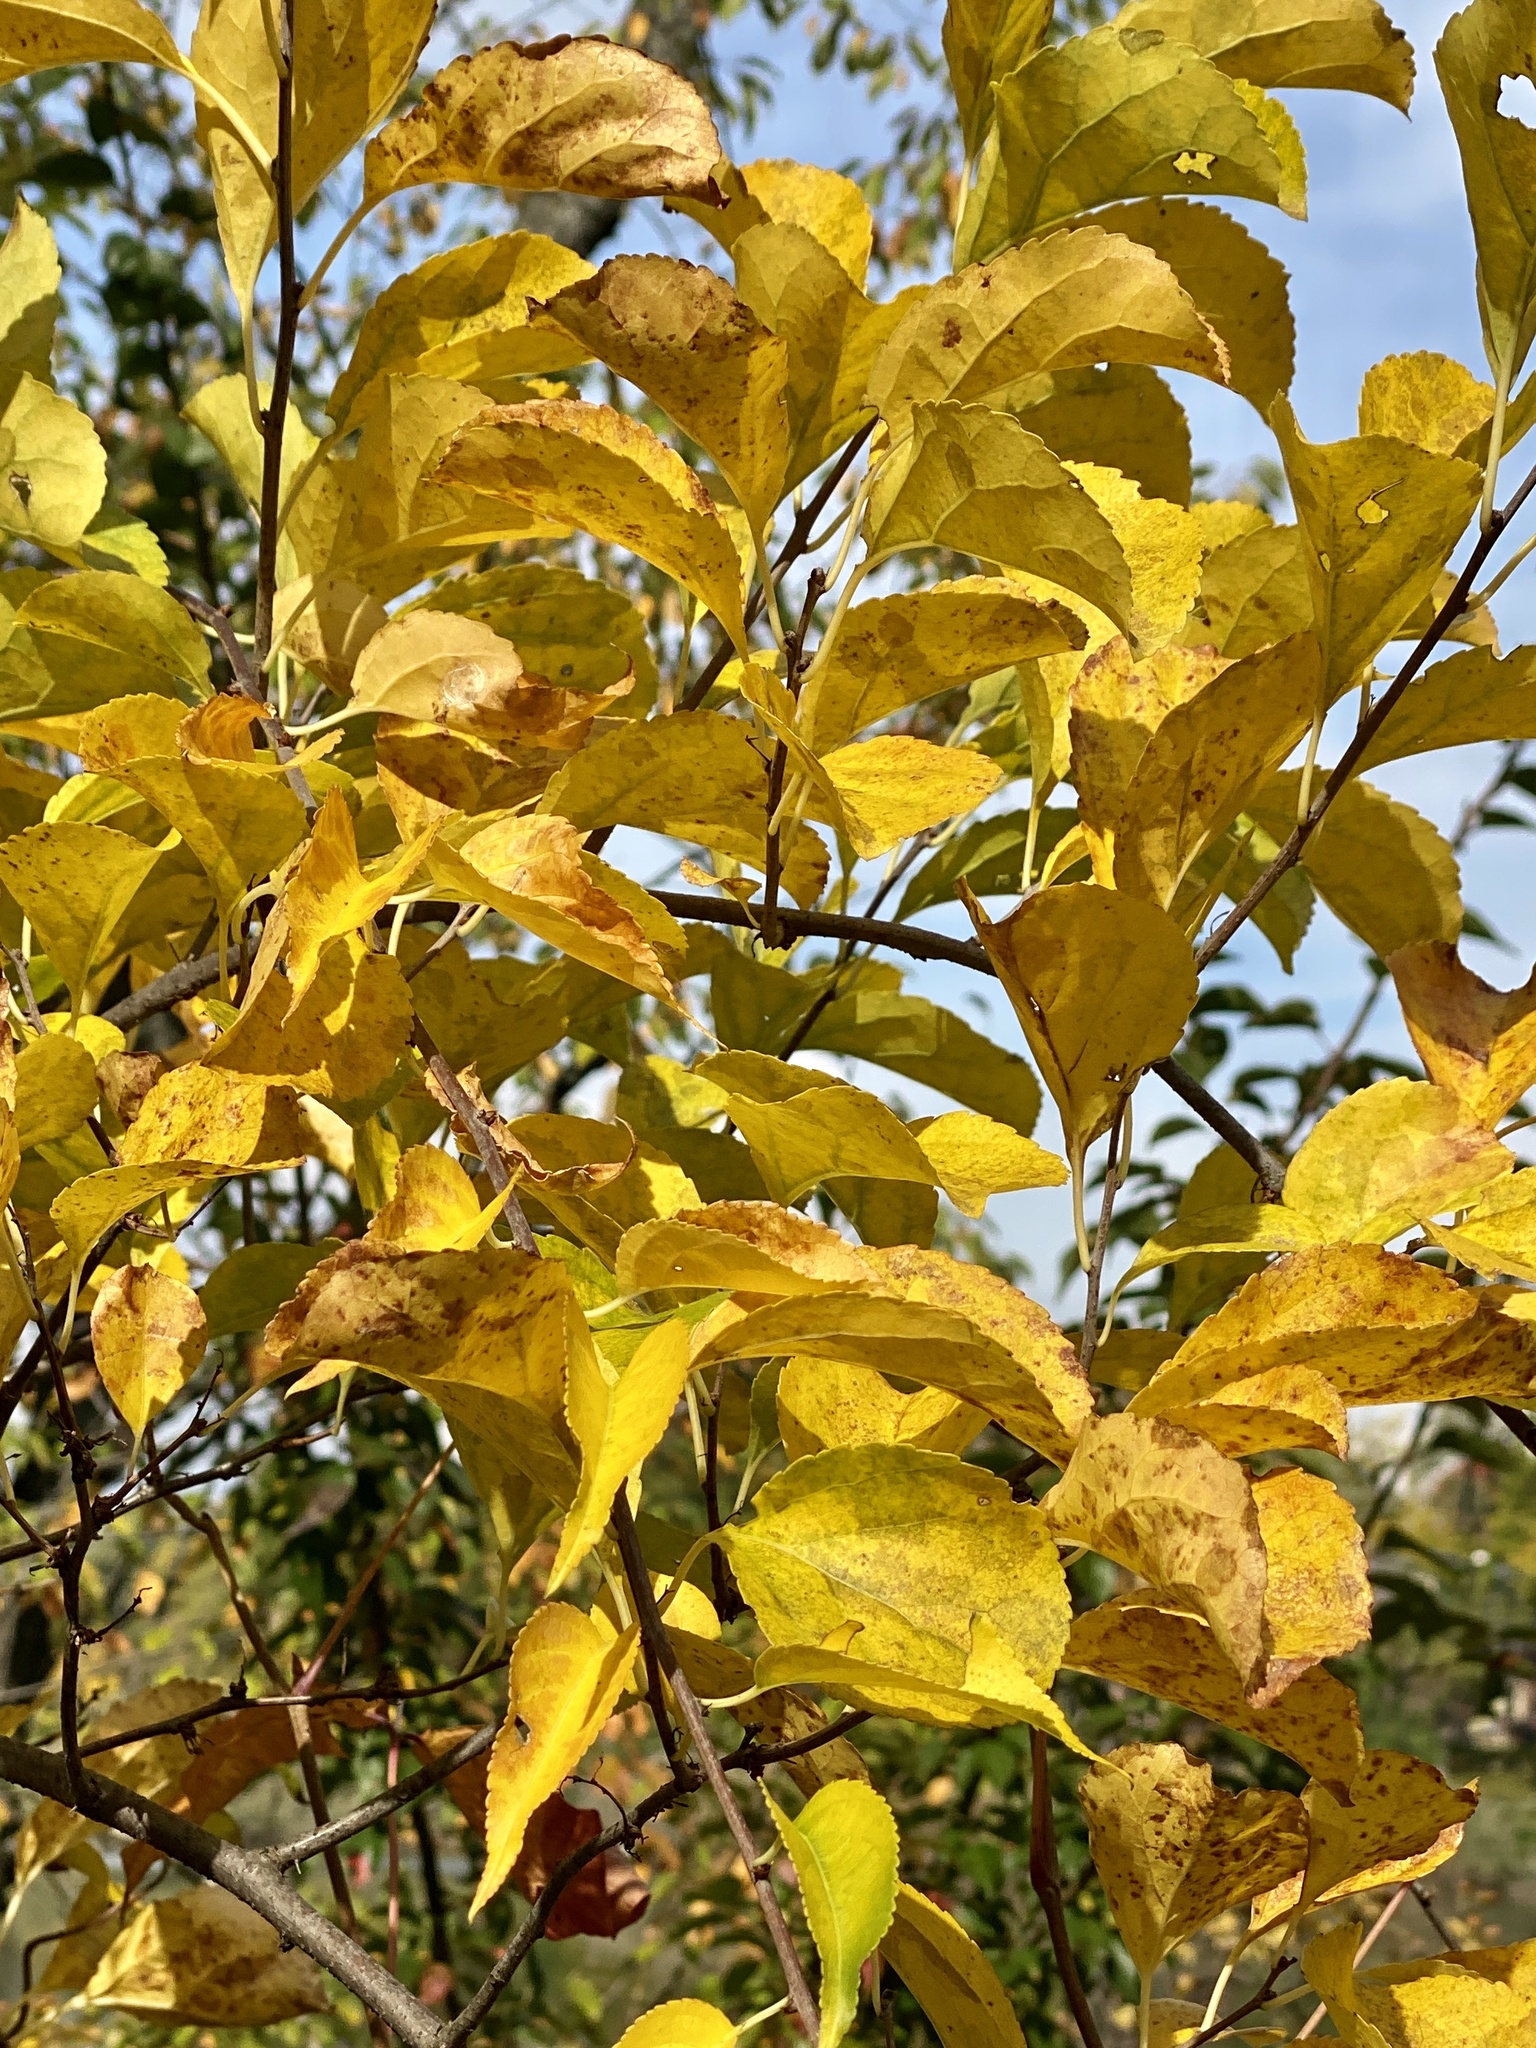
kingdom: Plantae
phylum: Tracheophyta
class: Magnoliopsida
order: Celastrales
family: Celastraceae
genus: Celastrus
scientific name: Celastrus orbiculatus
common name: Oriental bittersweet
